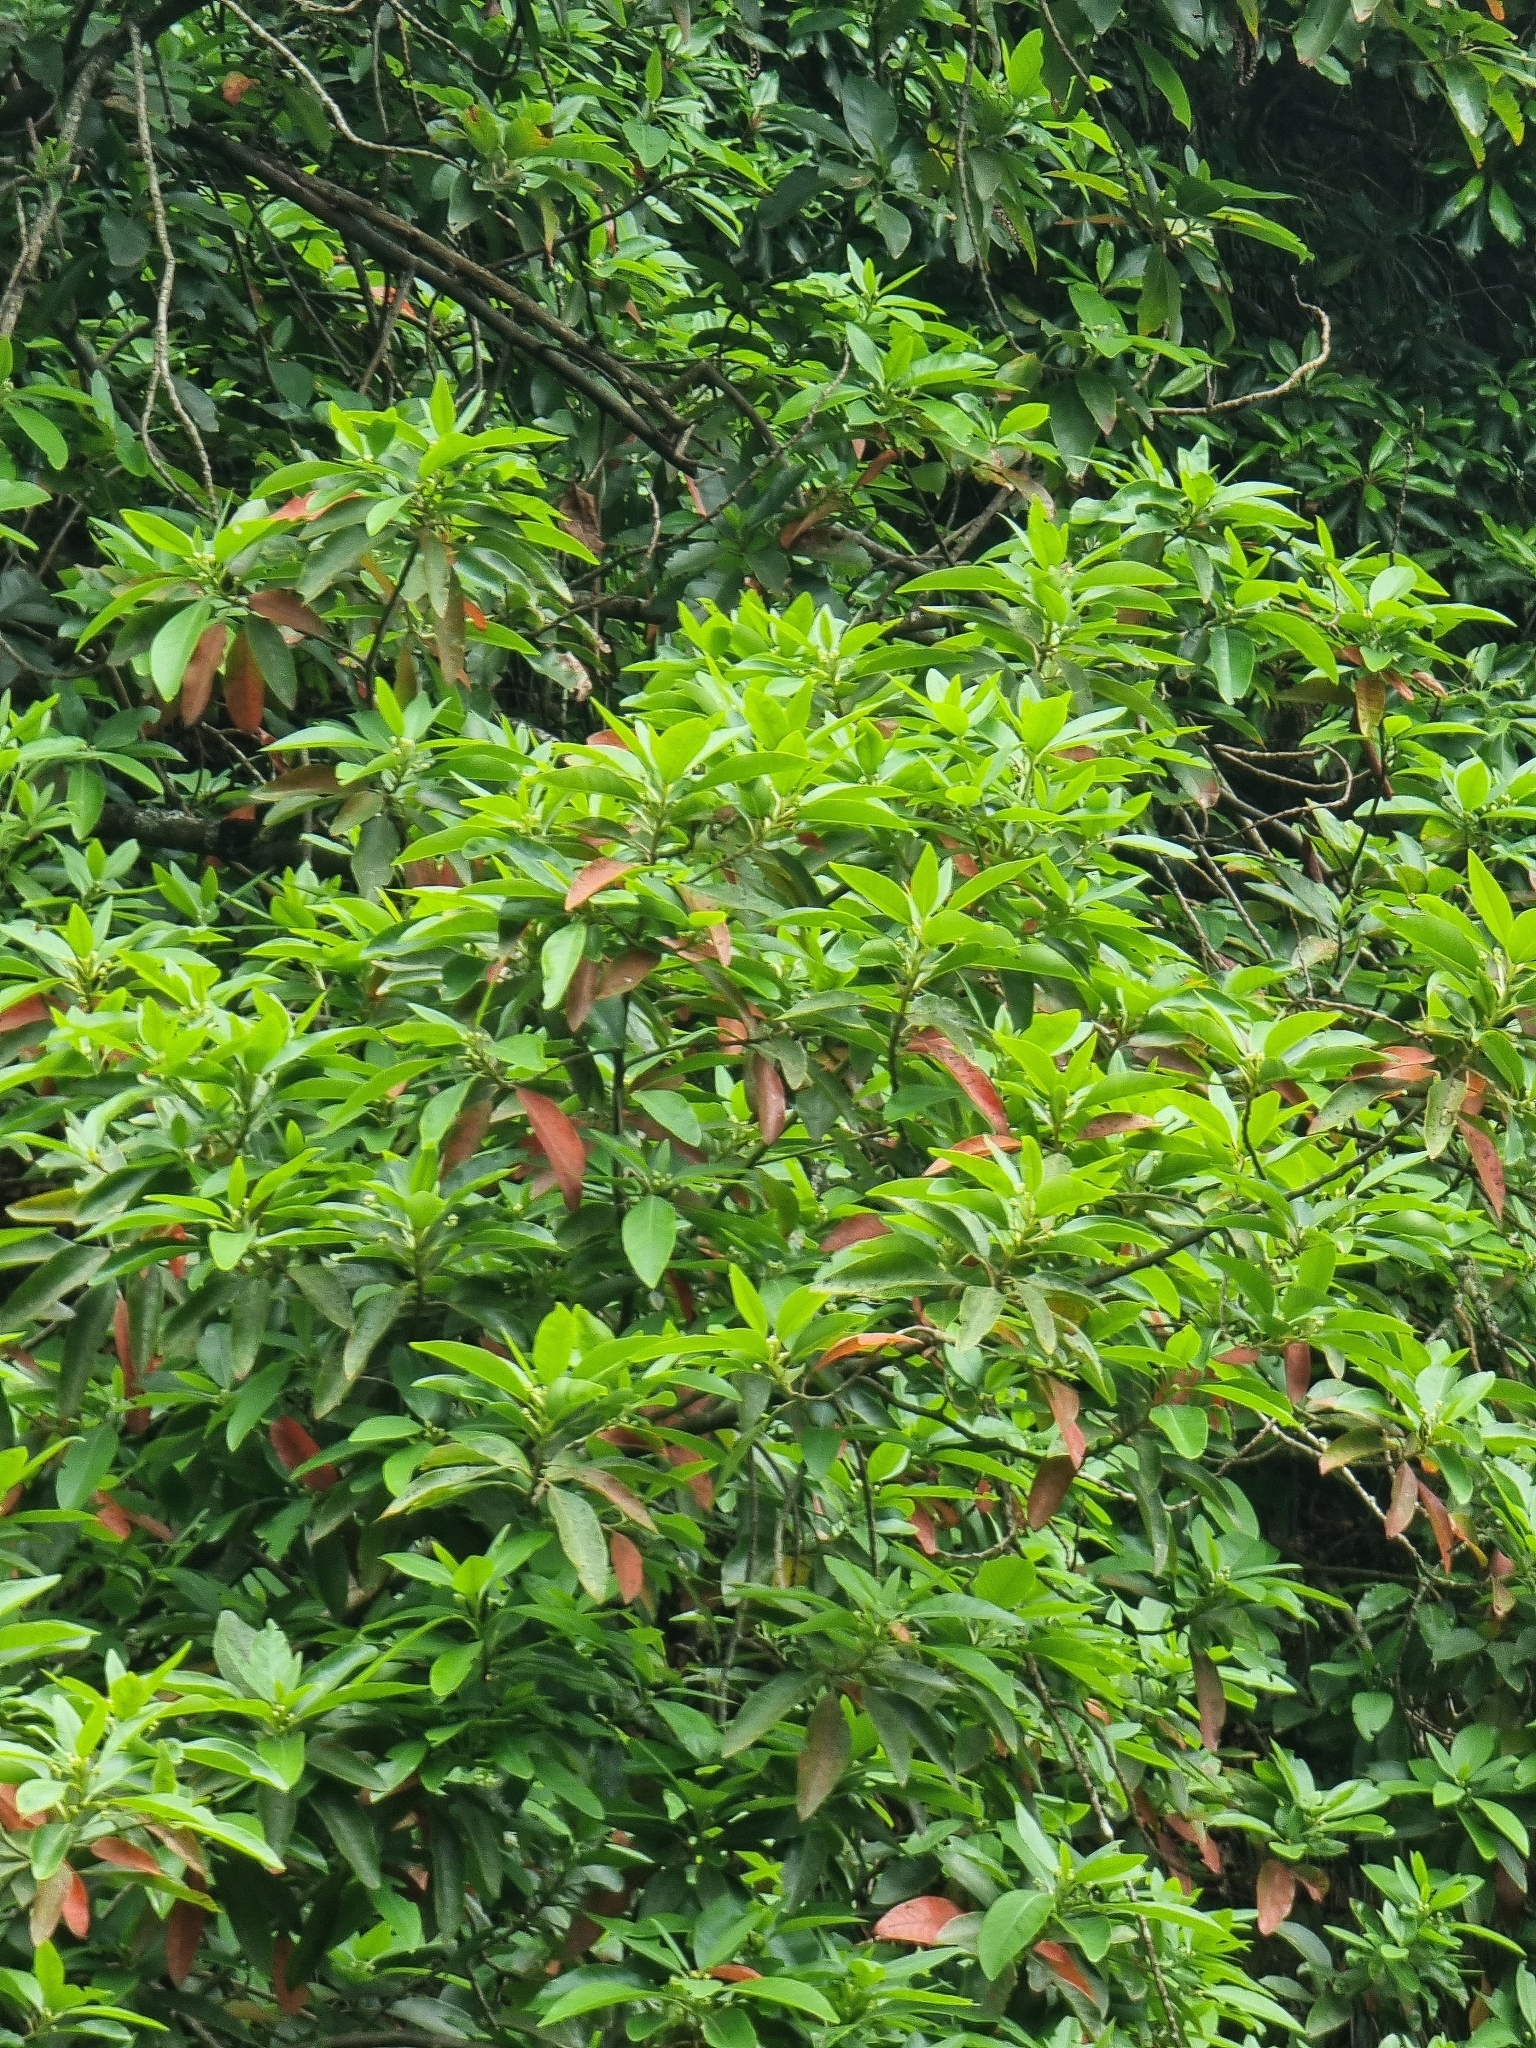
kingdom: Plantae
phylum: Tracheophyta
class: Magnoliopsida
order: Laurales
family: Lauraceae
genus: Persea
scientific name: Persea indica
